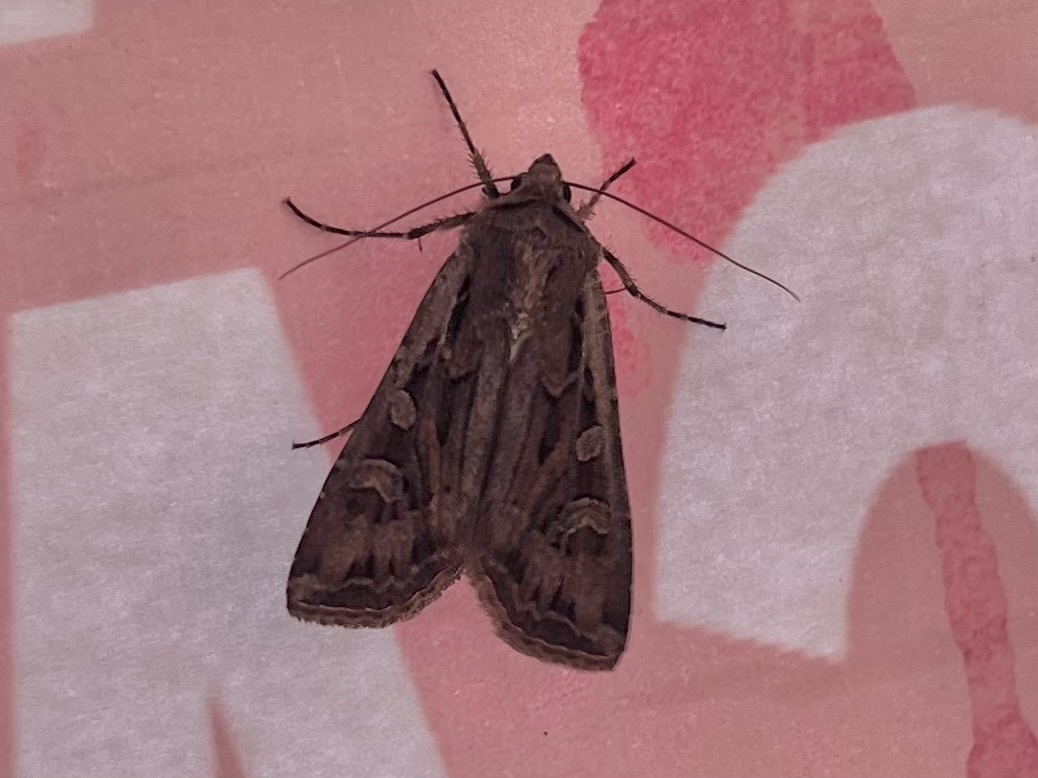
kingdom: Animalia
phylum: Arthropoda
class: Insecta
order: Lepidoptera
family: Noctuidae
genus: Euxoa
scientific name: Euxoa auxiliaris
